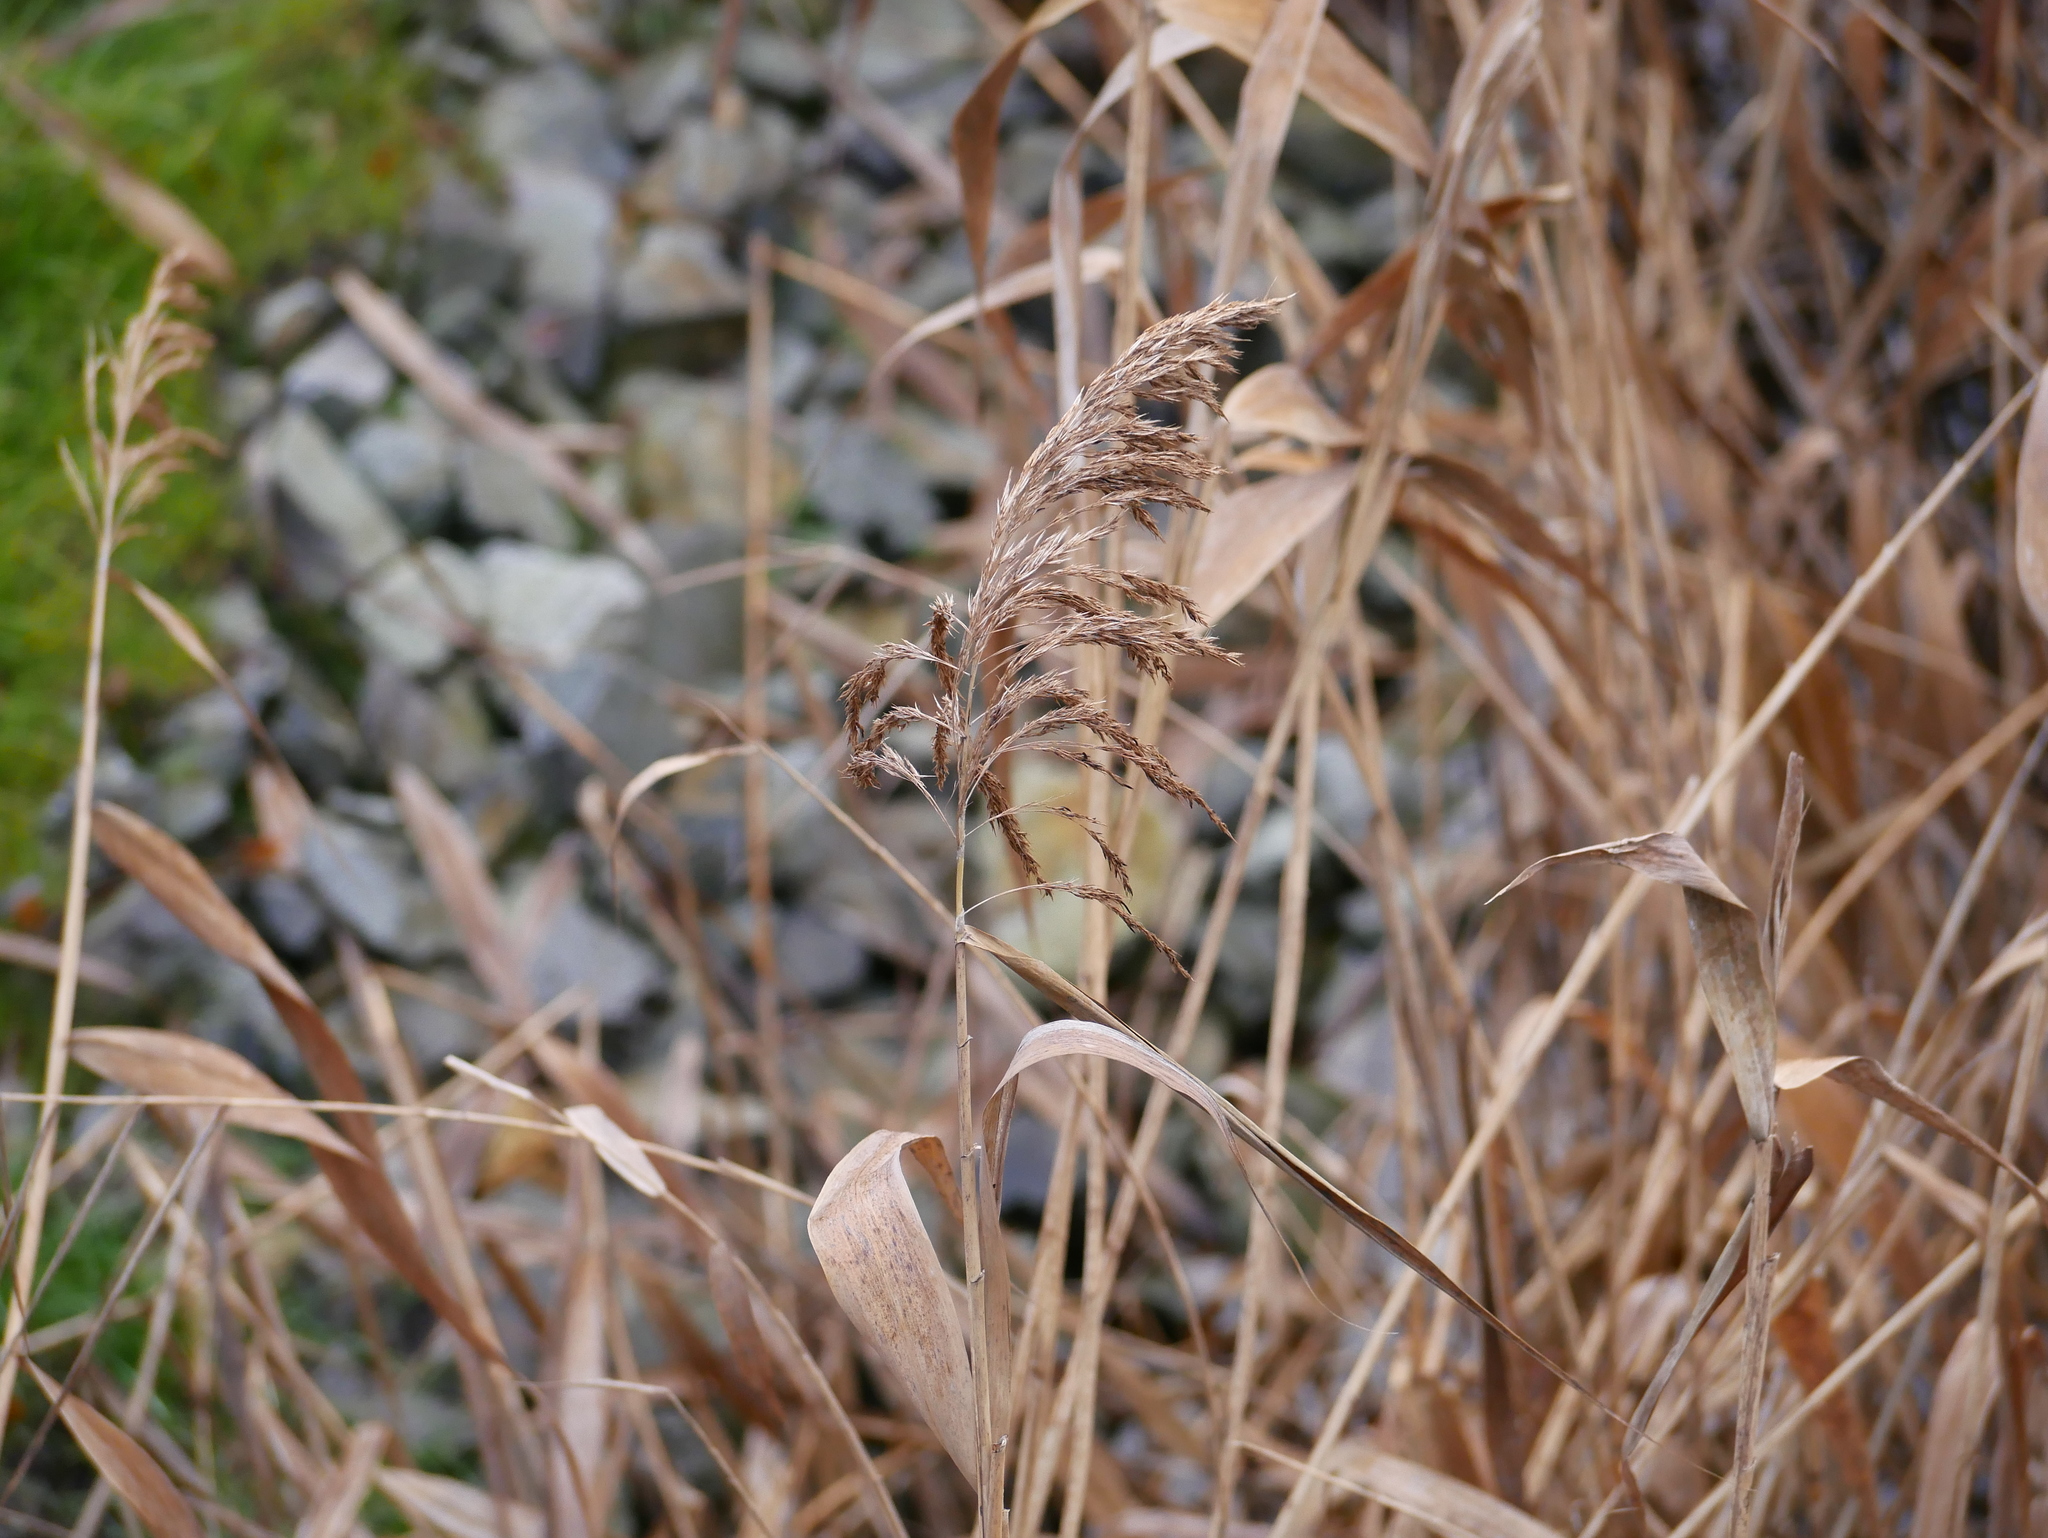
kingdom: Plantae
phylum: Tracheophyta
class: Liliopsida
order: Poales
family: Poaceae
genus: Phragmites
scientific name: Phragmites australis
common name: Common reed
